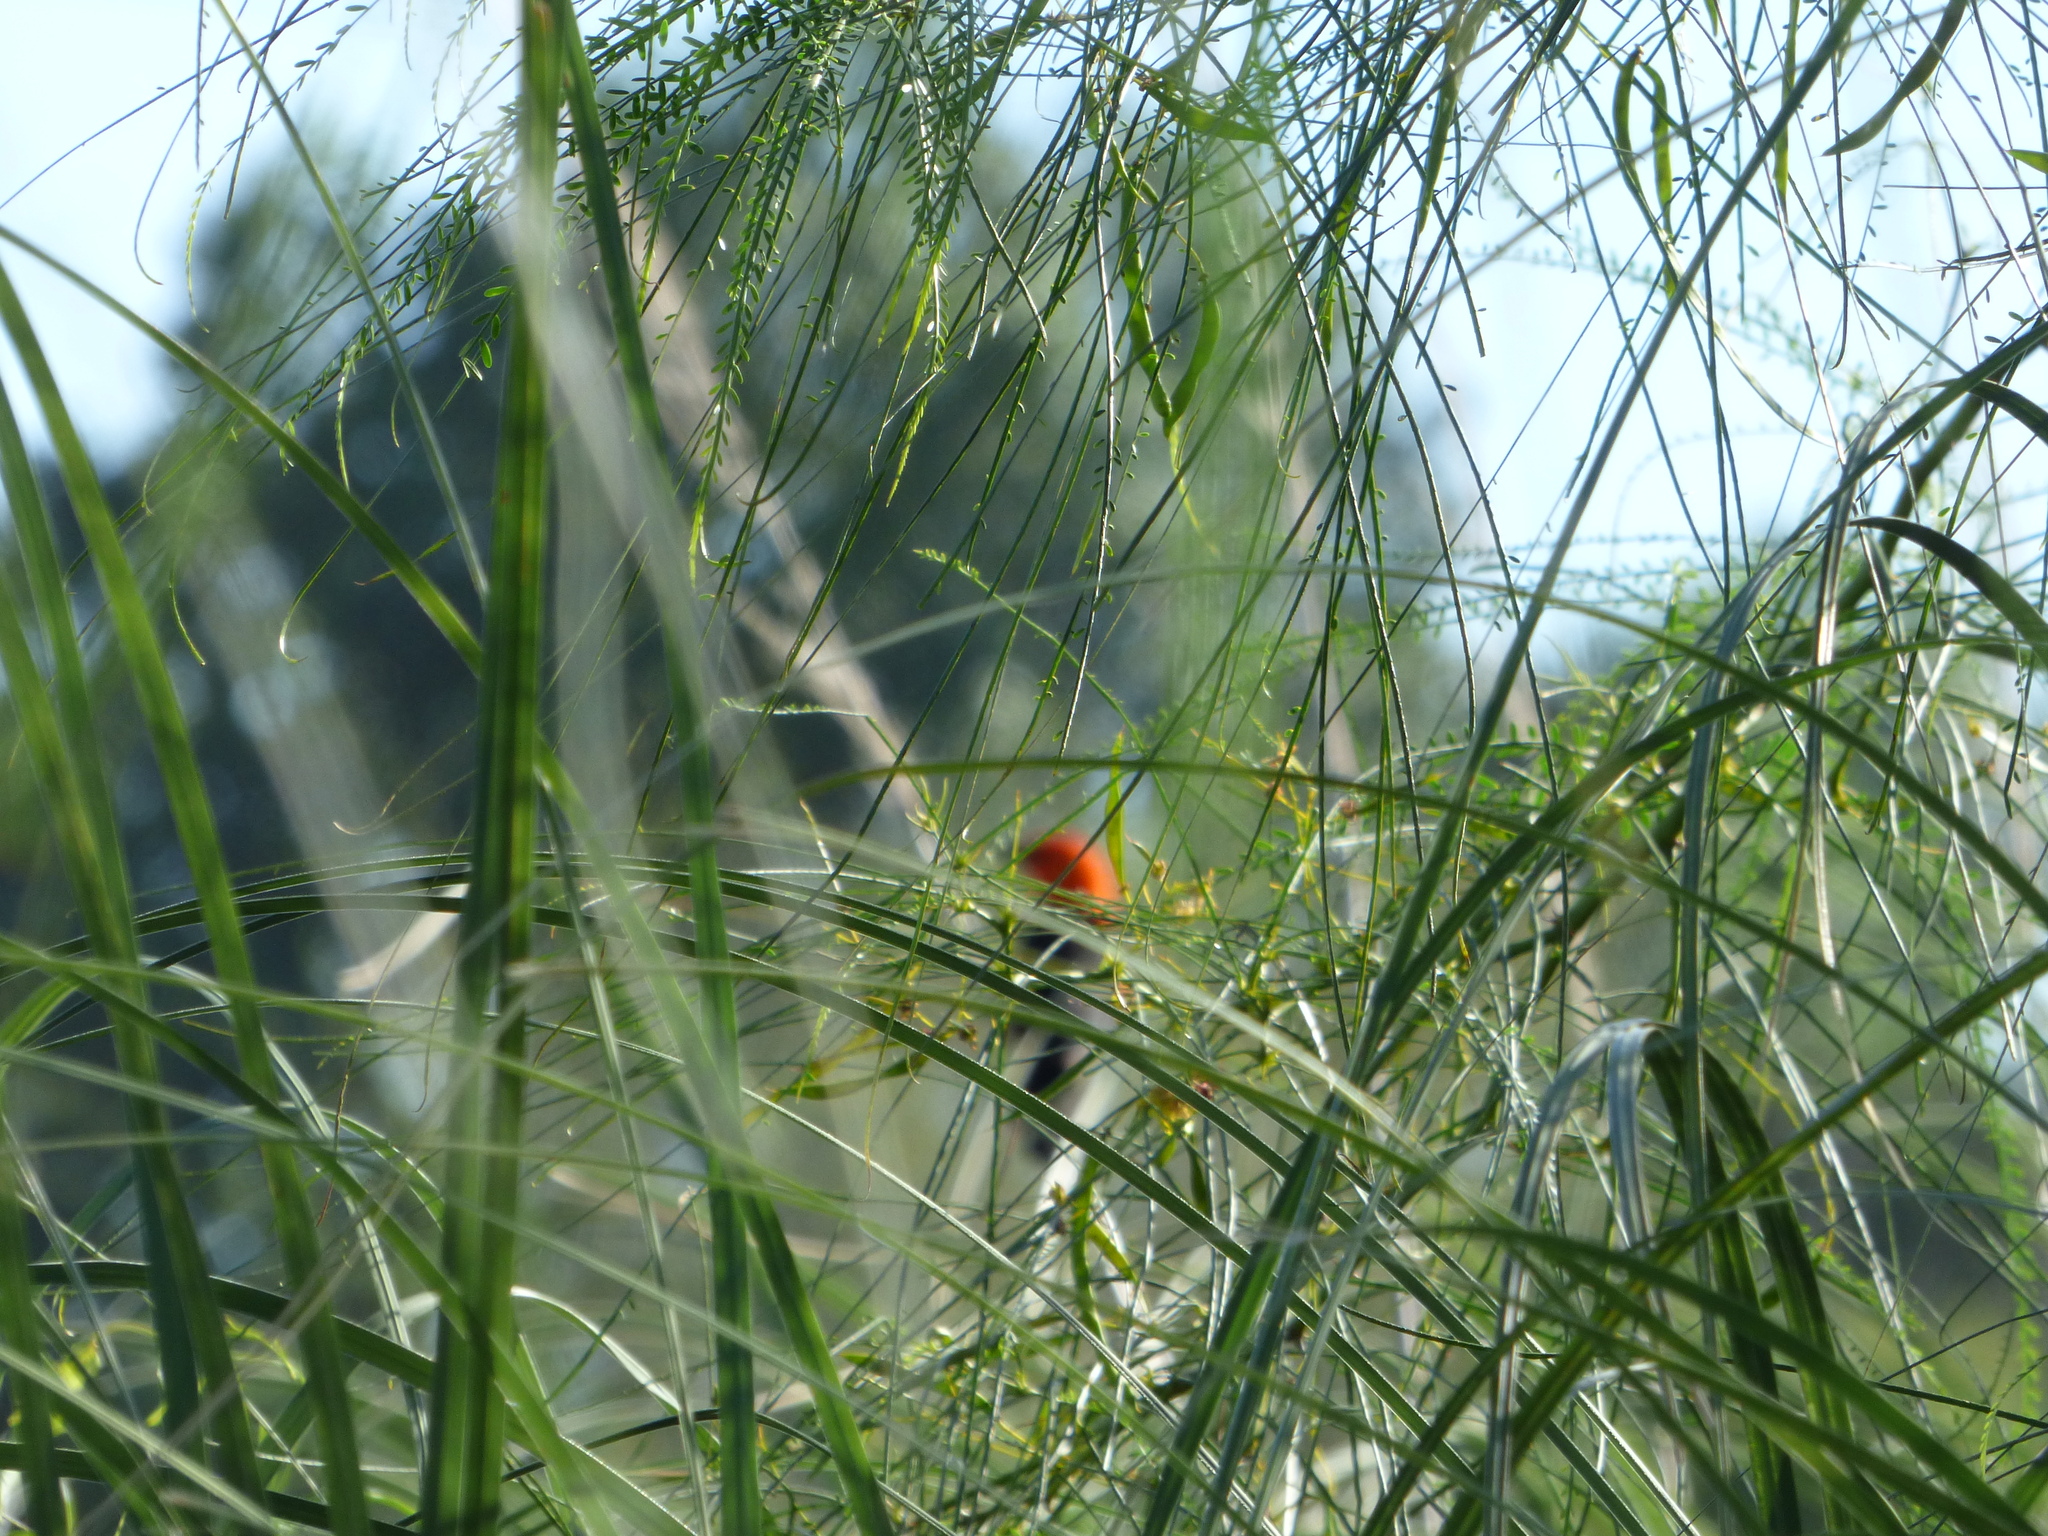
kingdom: Animalia
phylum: Chordata
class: Aves
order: Passeriformes
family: Icteridae
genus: Amblyramphus
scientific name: Amblyramphus holosericeus
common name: Scarlet-headed blackbird
